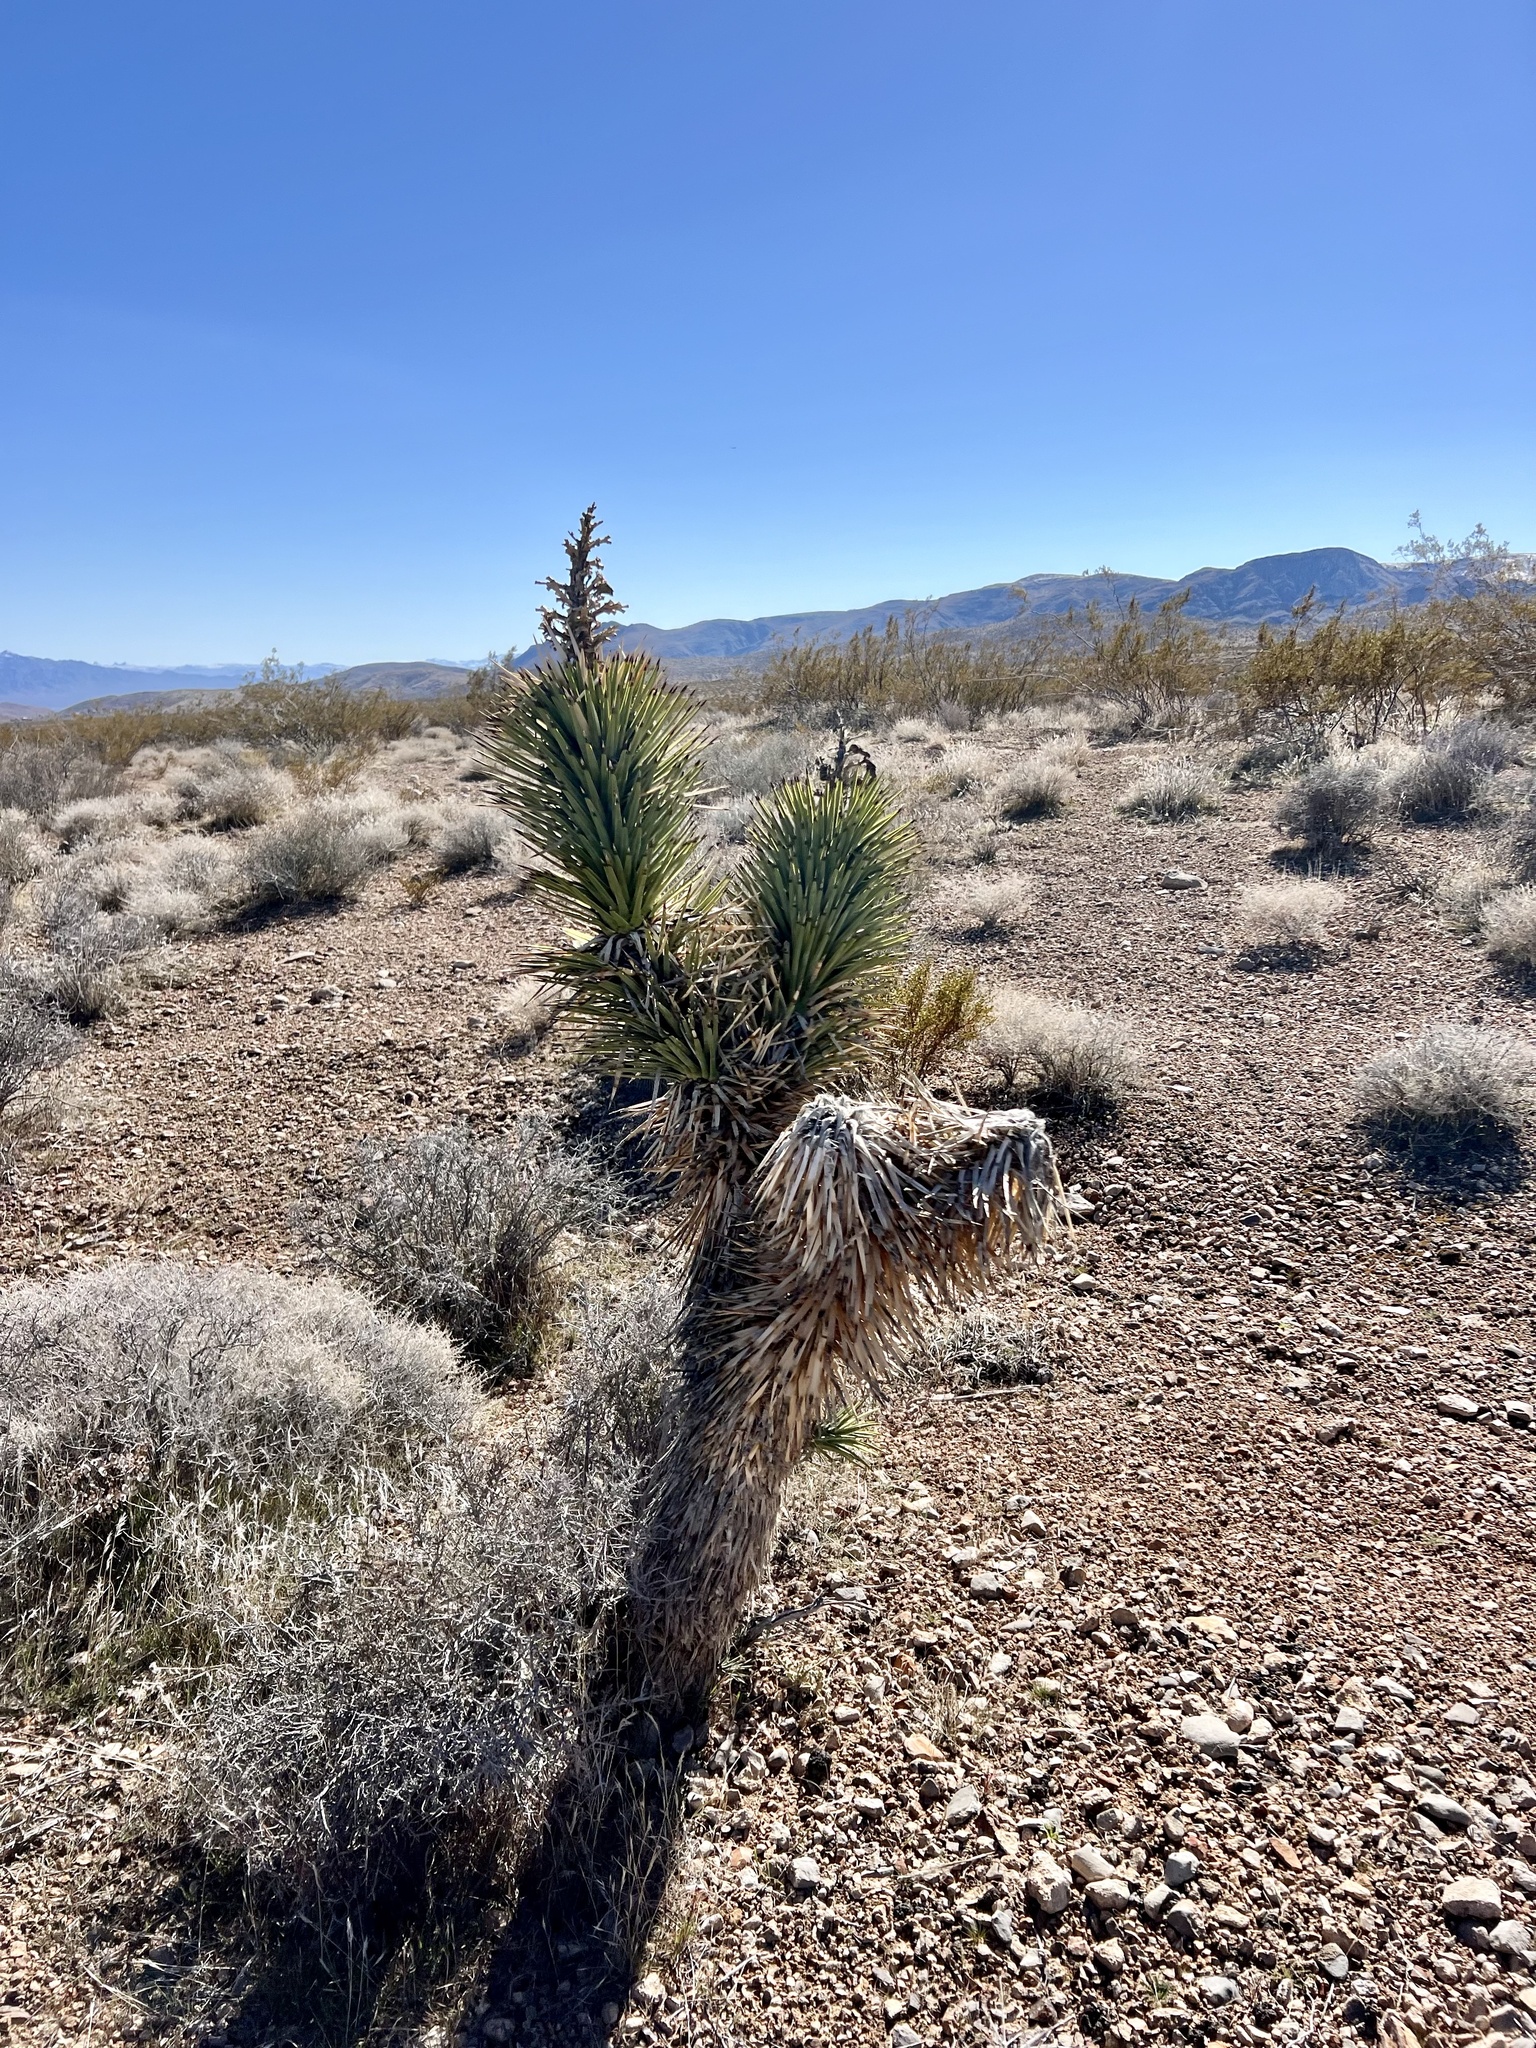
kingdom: Plantae
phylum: Tracheophyta
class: Liliopsida
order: Asparagales
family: Asparagaceae
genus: Yucca
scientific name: Yucca brevifolia
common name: Joshua tree
